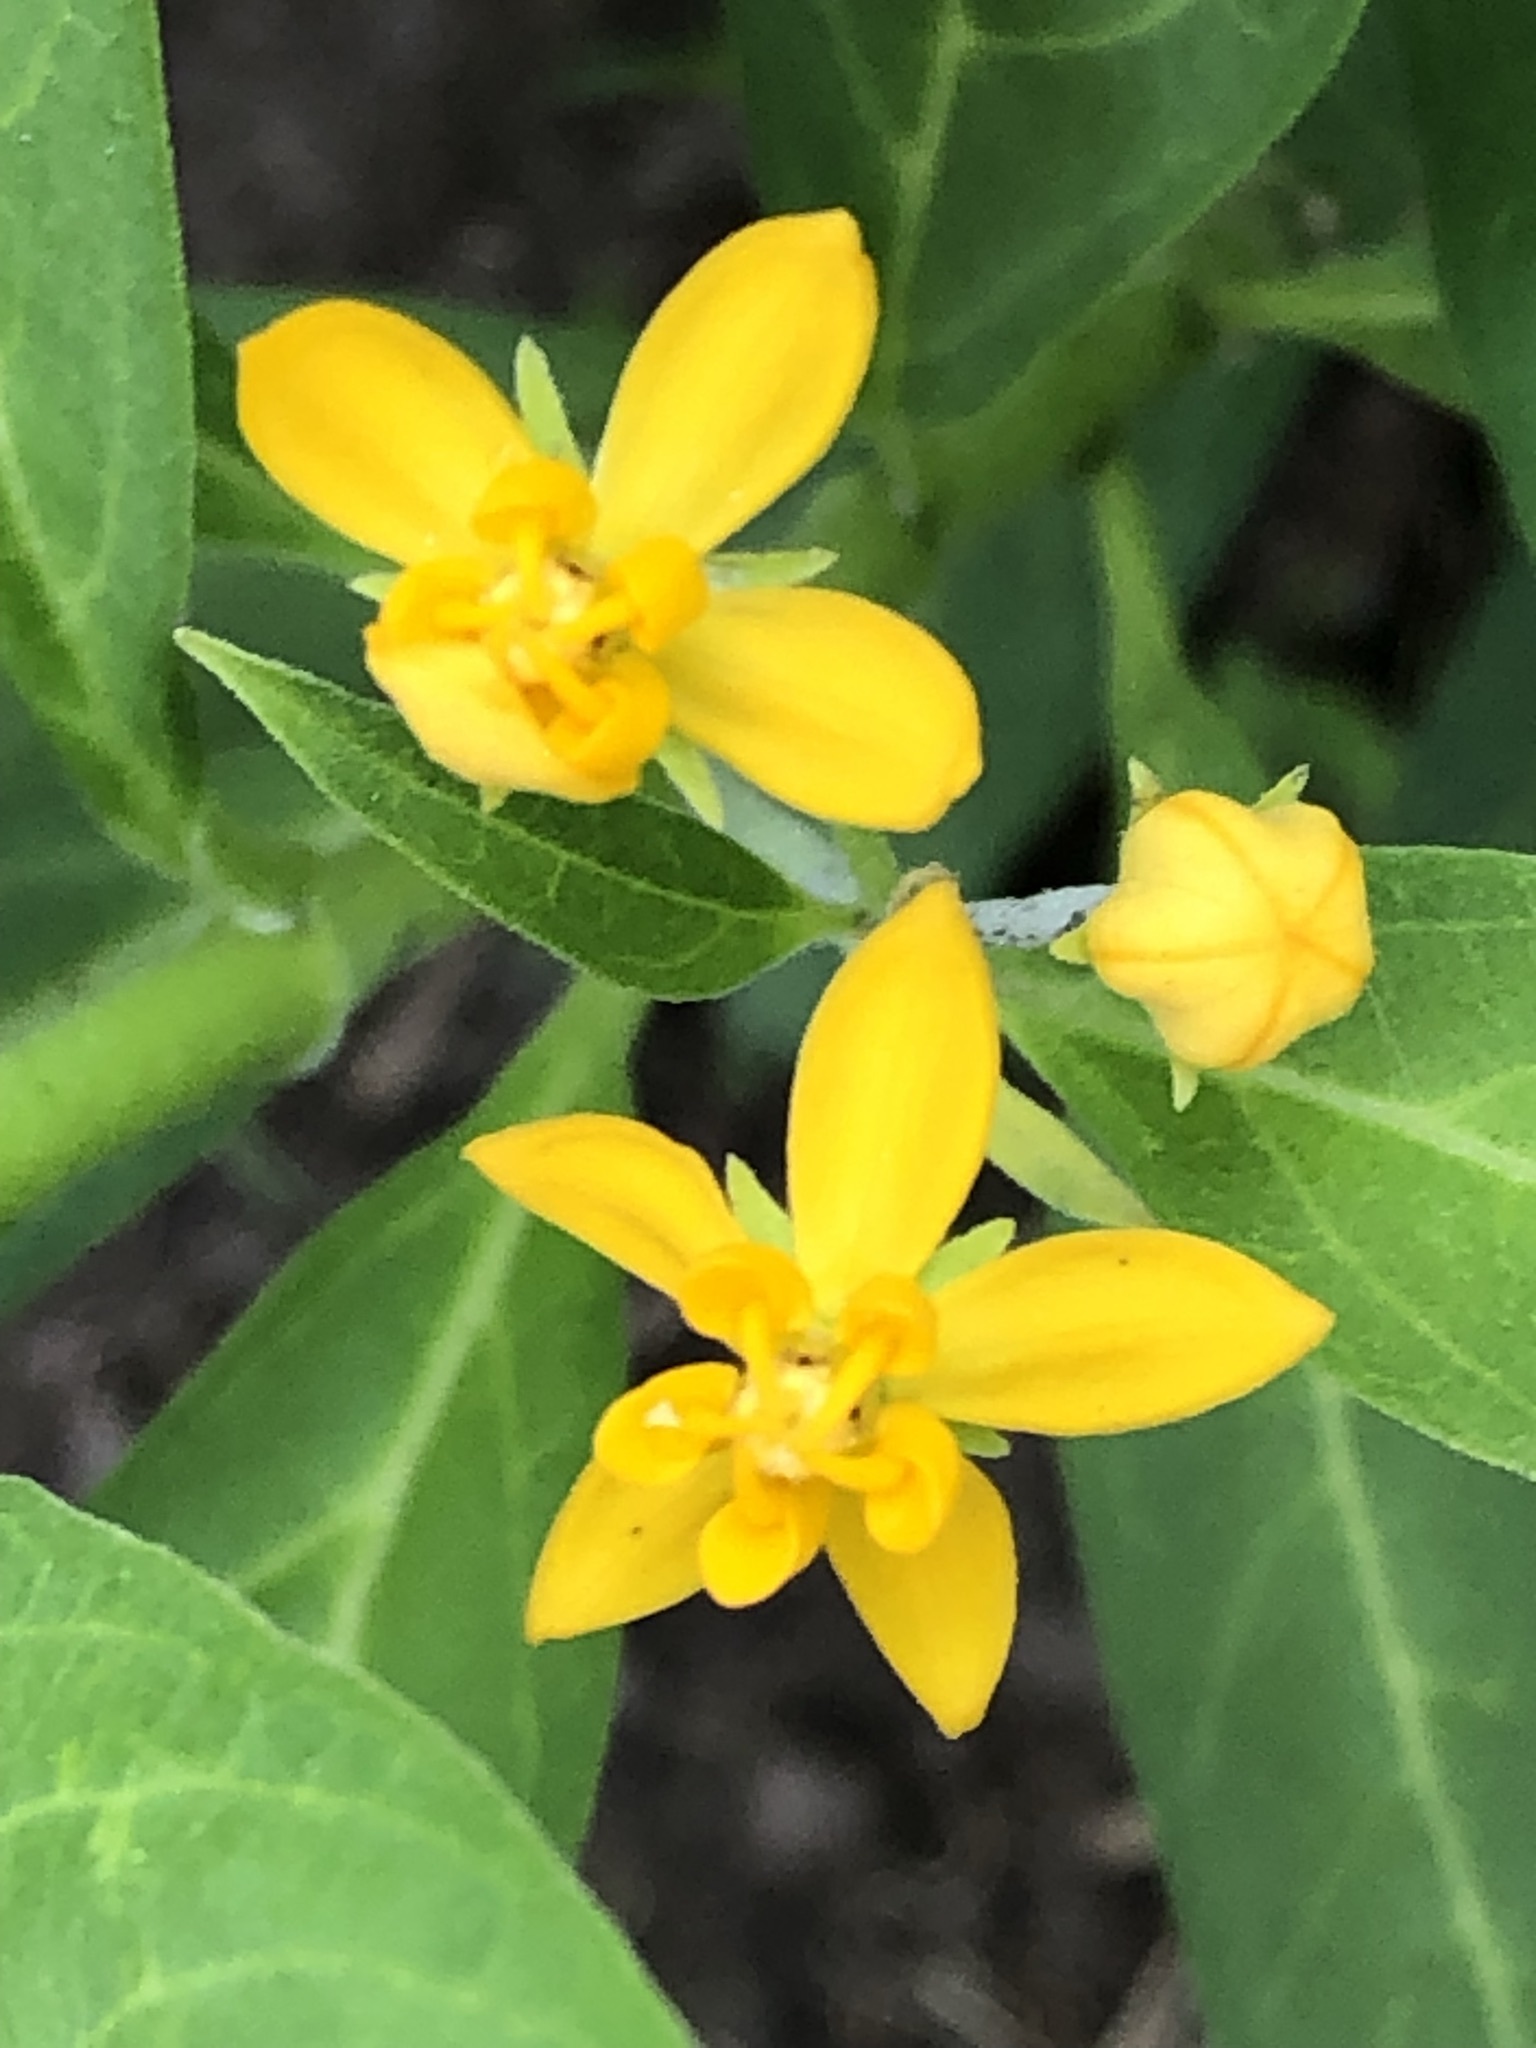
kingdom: Plantae
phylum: Tracheophyta
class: Magnoliopsida
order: Gentianales
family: Apocynaceae
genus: Asclepias
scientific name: Asclepias curassavica
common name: Bloodflower
